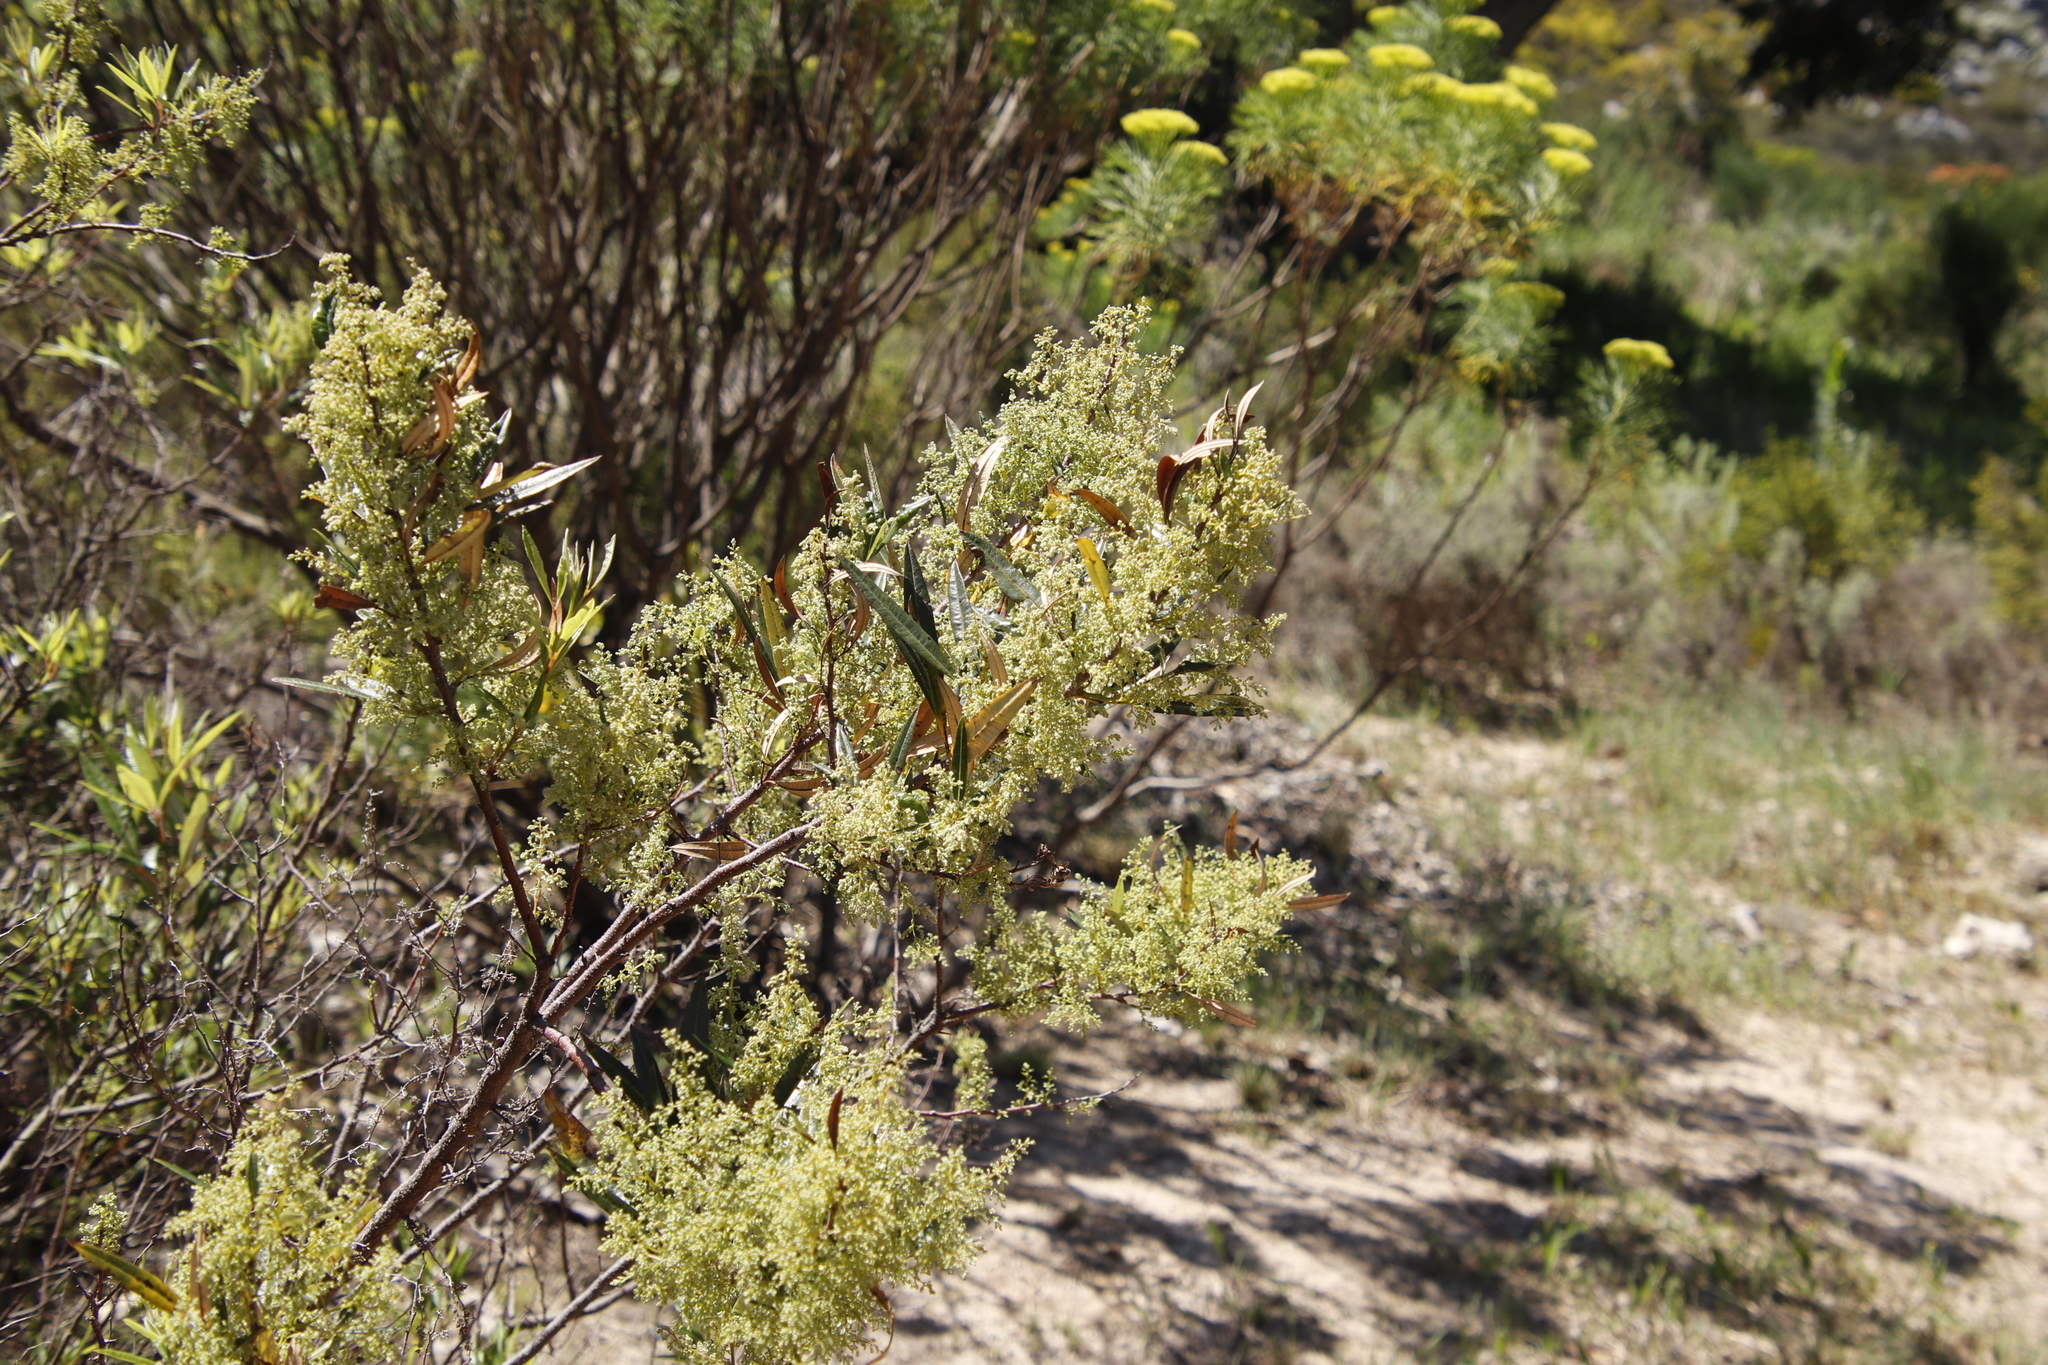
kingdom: Plantae
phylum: Tracheophyta
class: Magnoliopsida
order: Sapindales
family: Anacardiaceae
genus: Searsia
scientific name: Searsia angustifolia
